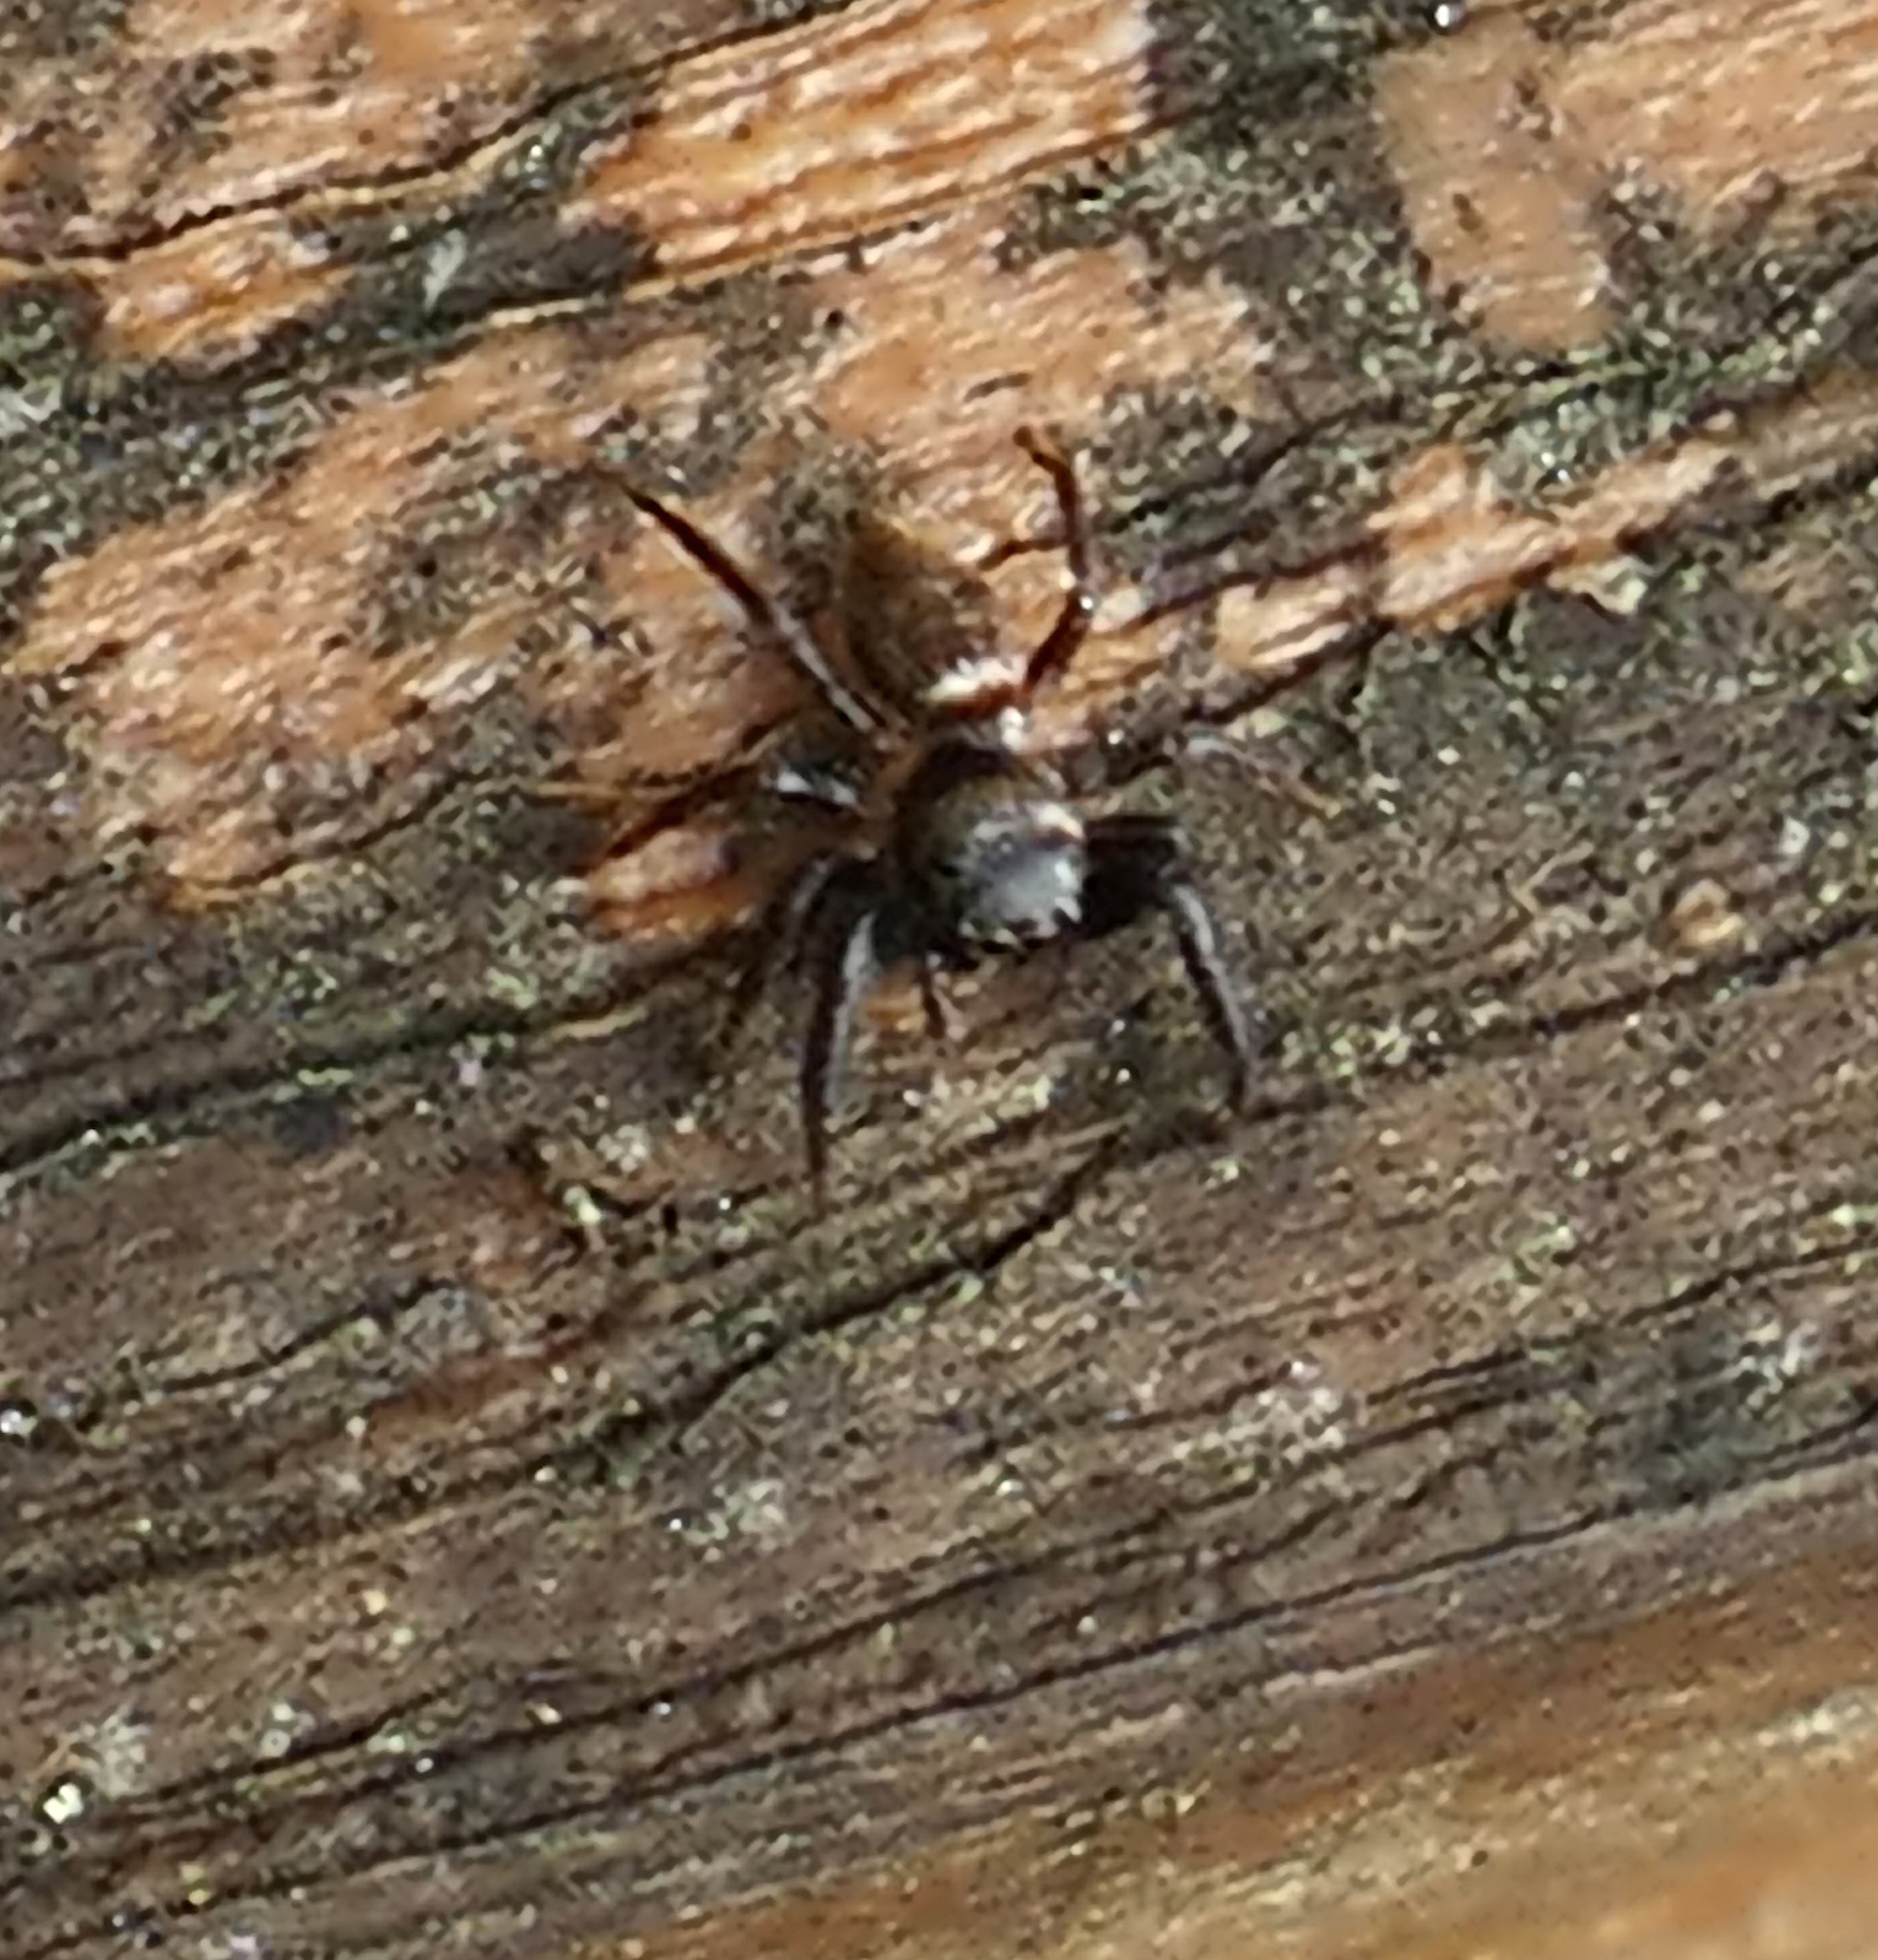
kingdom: Animalia
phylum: Arthropoda
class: Arachnida
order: Araneae
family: Salticidae
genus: Messua
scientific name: Messua limbata
